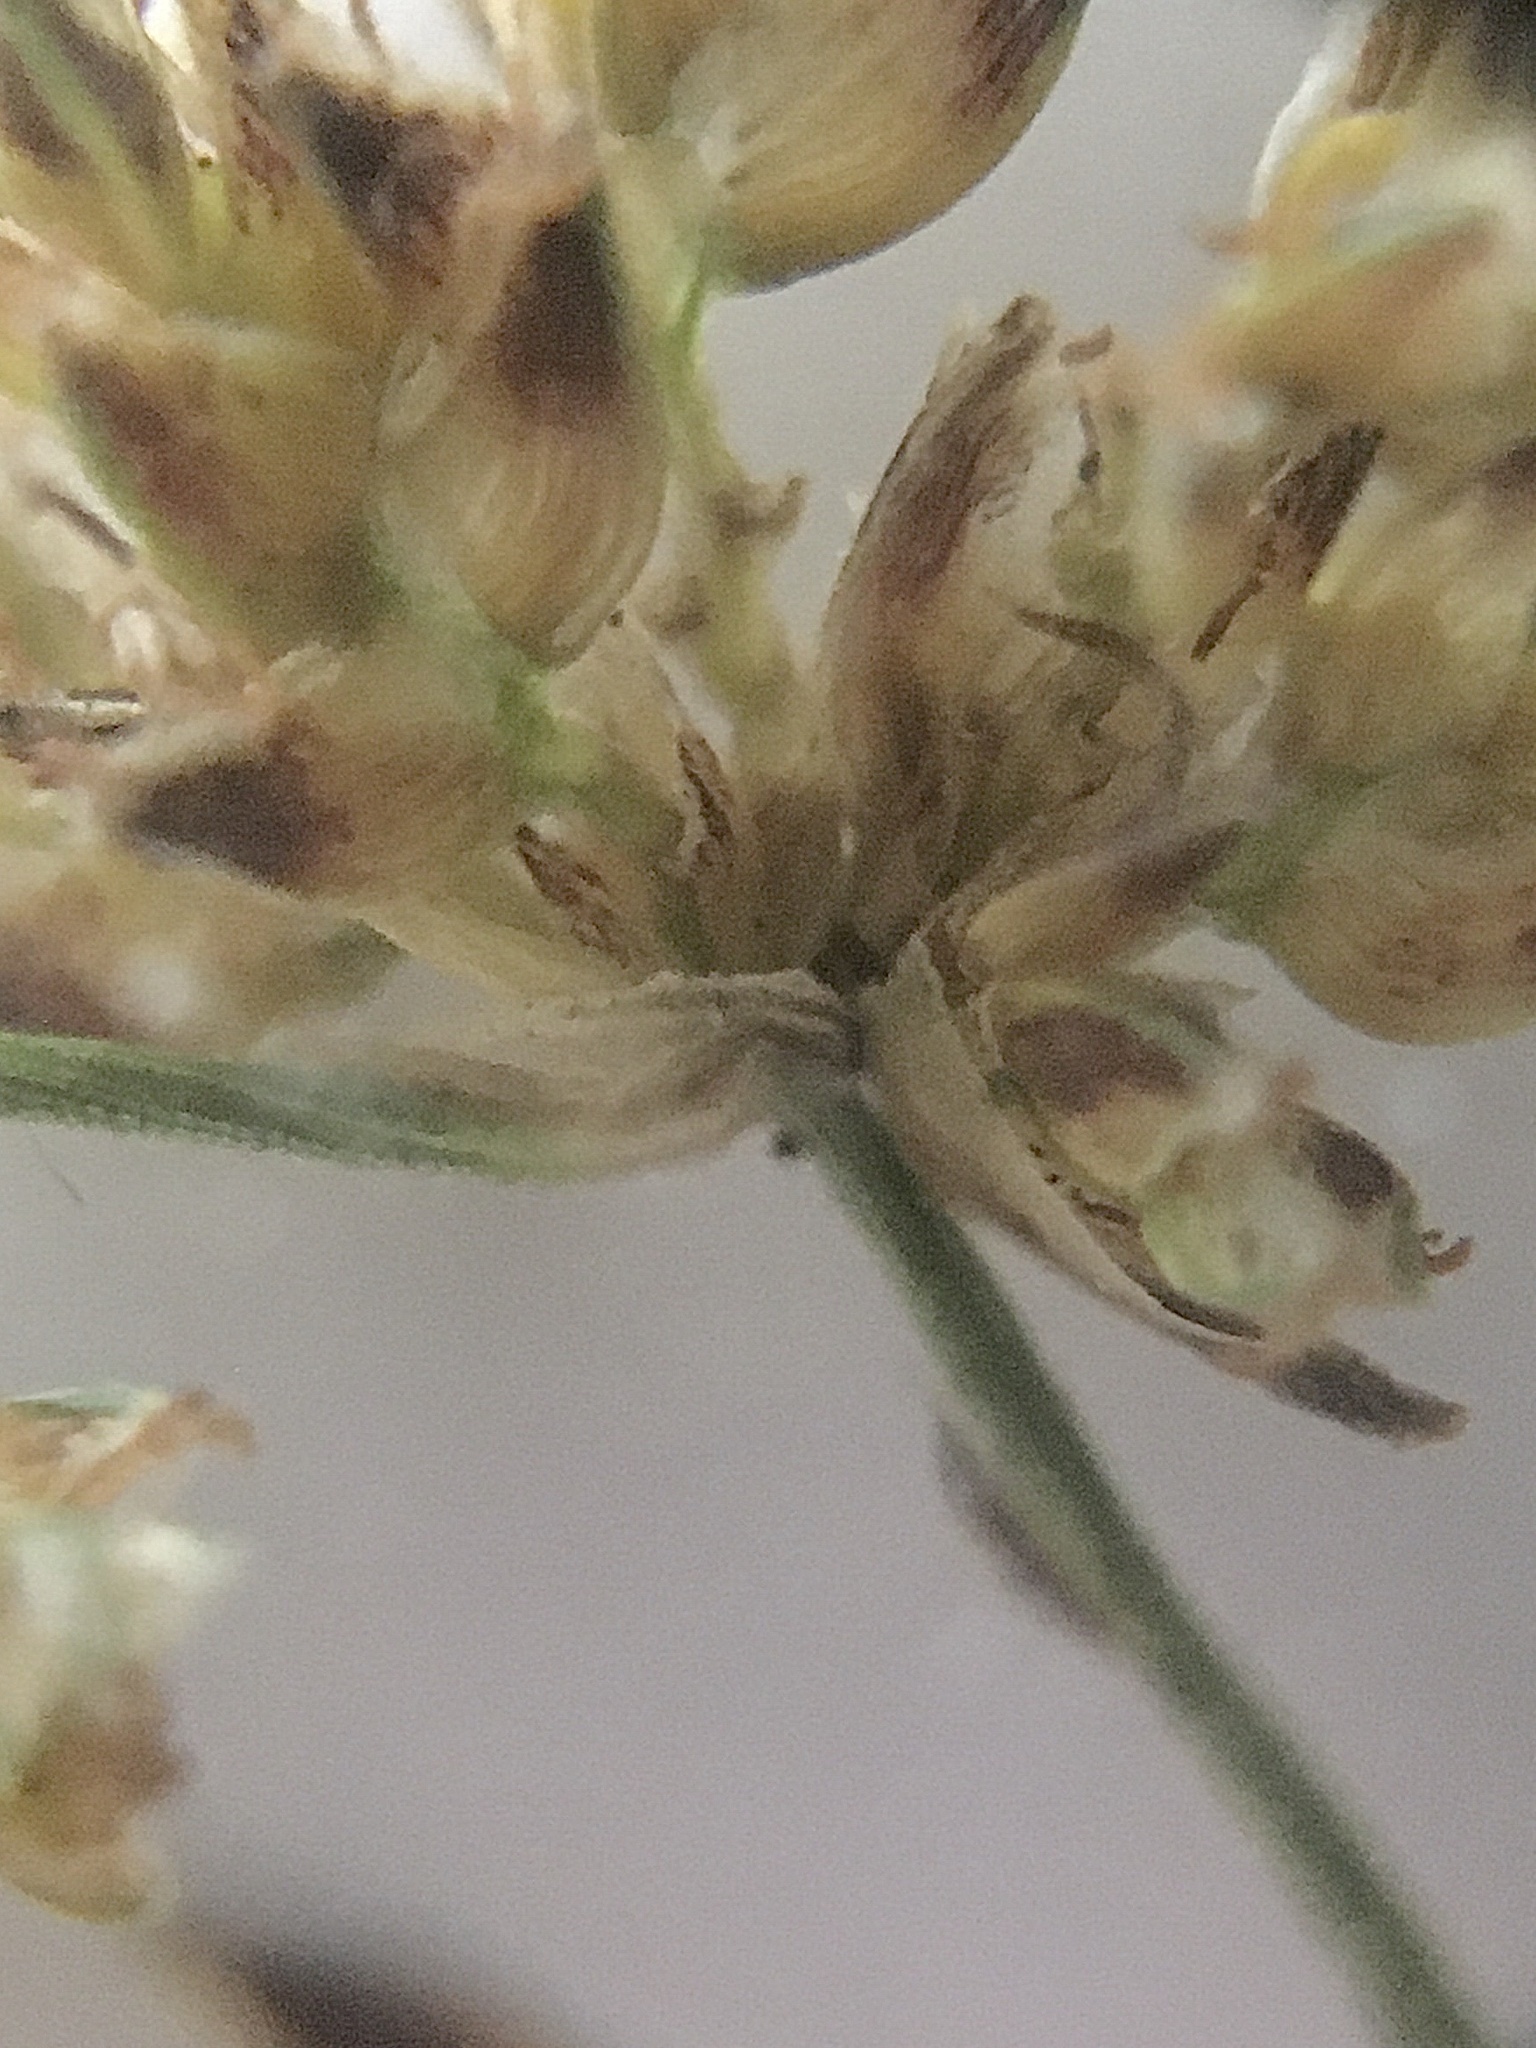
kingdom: Plantae
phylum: Tracheophyta
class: Liliopsida
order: Poales
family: Cyperaceae
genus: Isolepis
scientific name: Isolepis marginata
